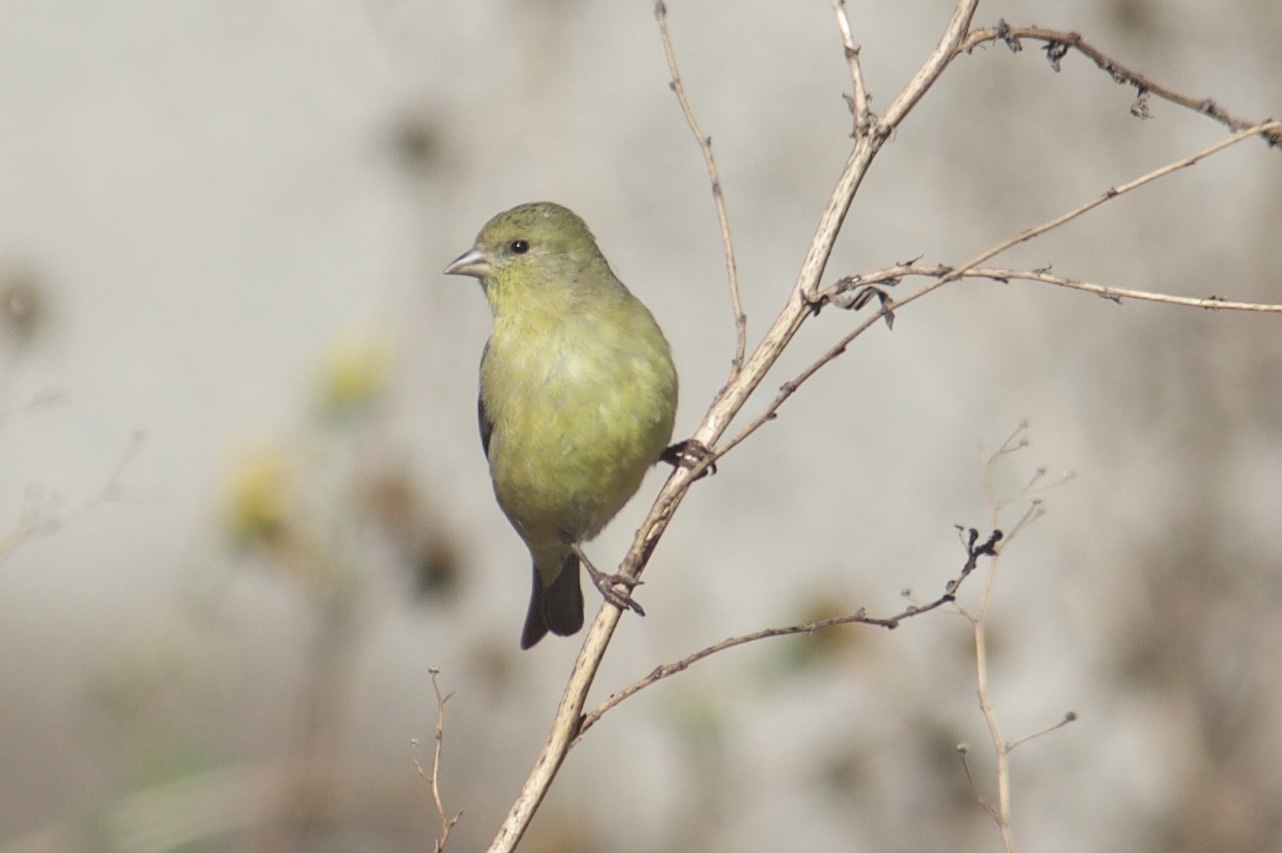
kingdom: Animalia
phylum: Chordata
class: Aves
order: Passeriformes
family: Fringillidae
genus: Spinus
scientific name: Spinus psaltria
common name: Lesser goldfinch
